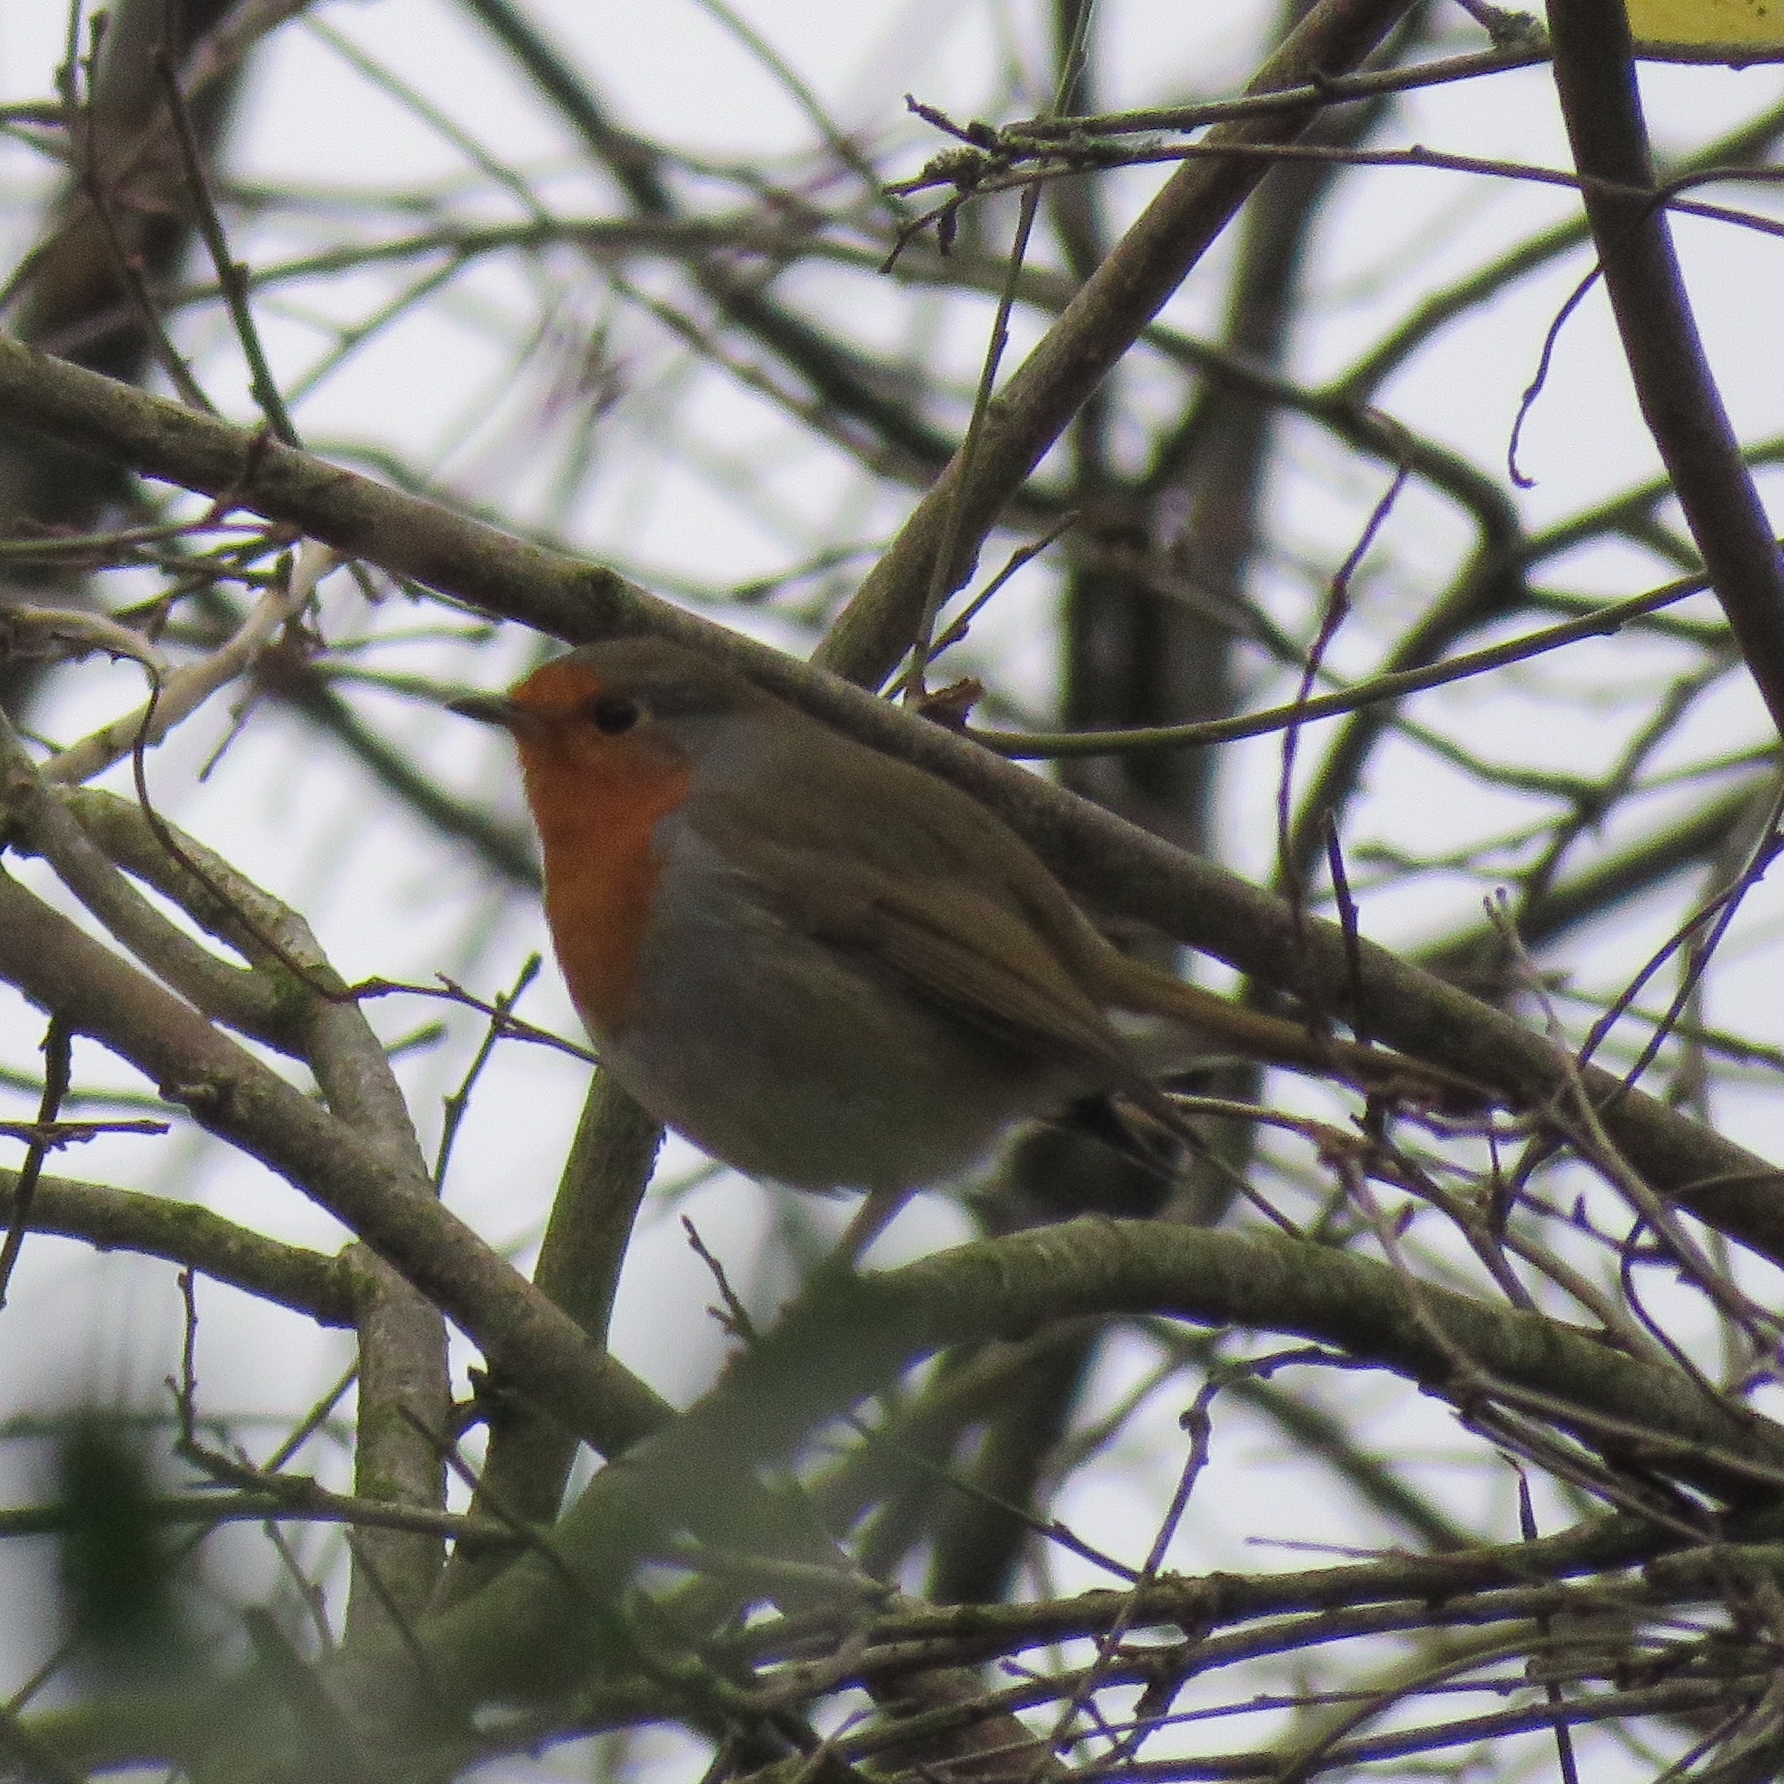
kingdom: Animalia
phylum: Chordata
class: Aves
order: Passeriformes
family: Muscicapidae
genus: Erithacus
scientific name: Erithacus rubecula
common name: European robin
